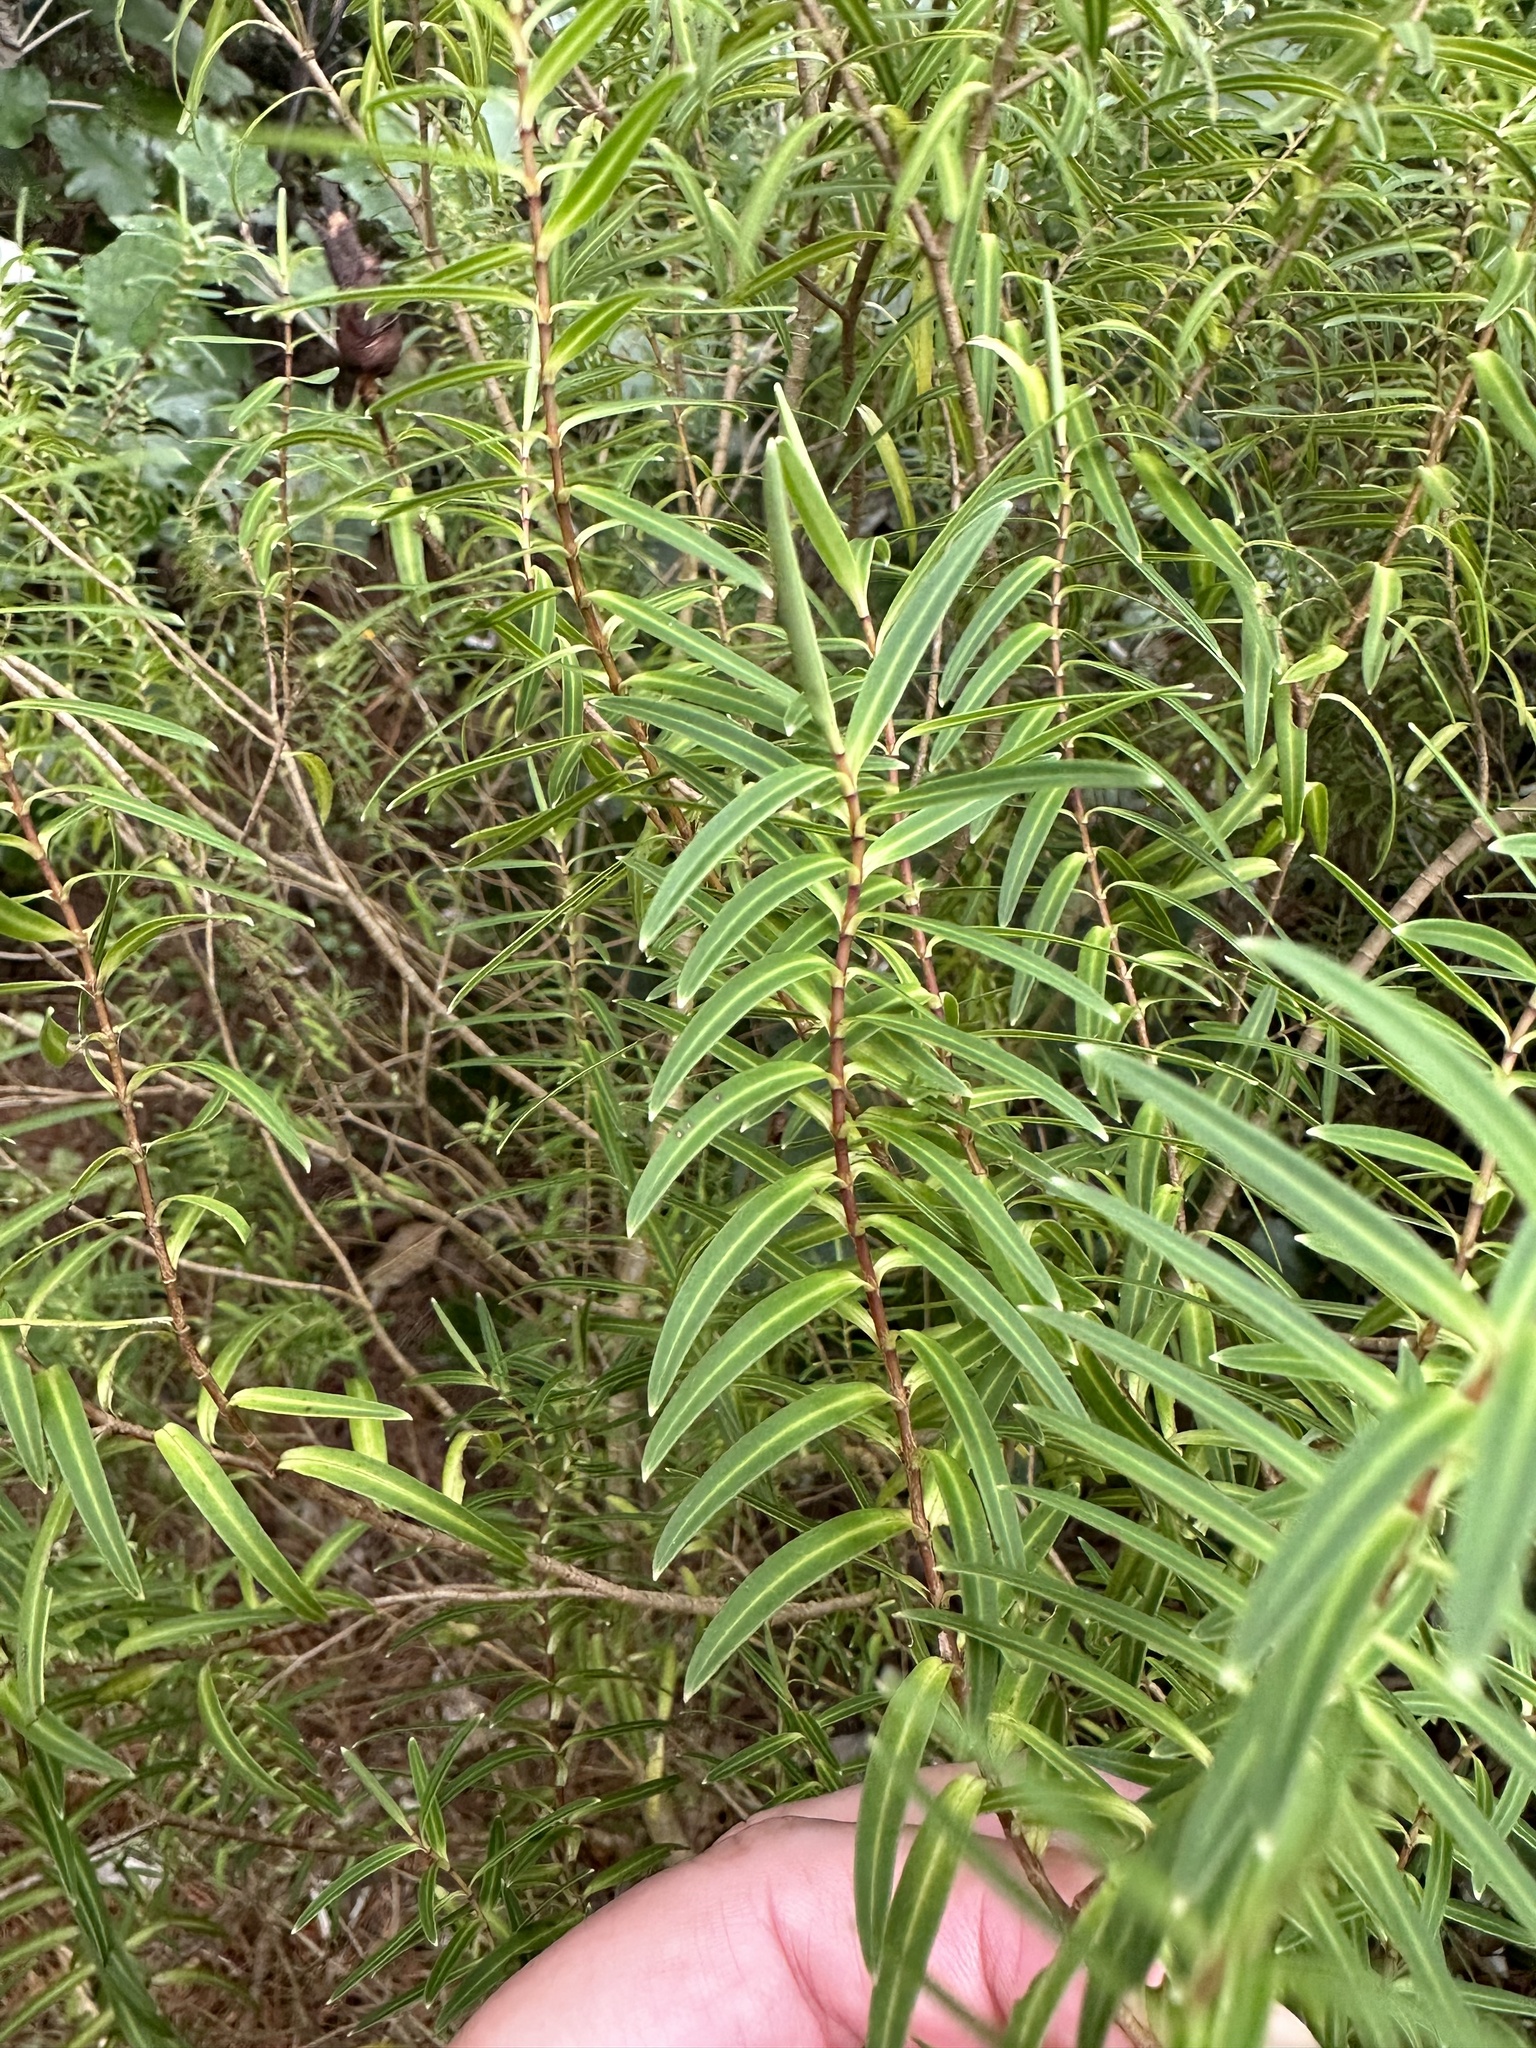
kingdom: Plantae
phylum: Tracheophyta
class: Magnoliopsida
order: Lamiales
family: Plantaginaceae
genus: Veronica
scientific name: Veronica parviflora
